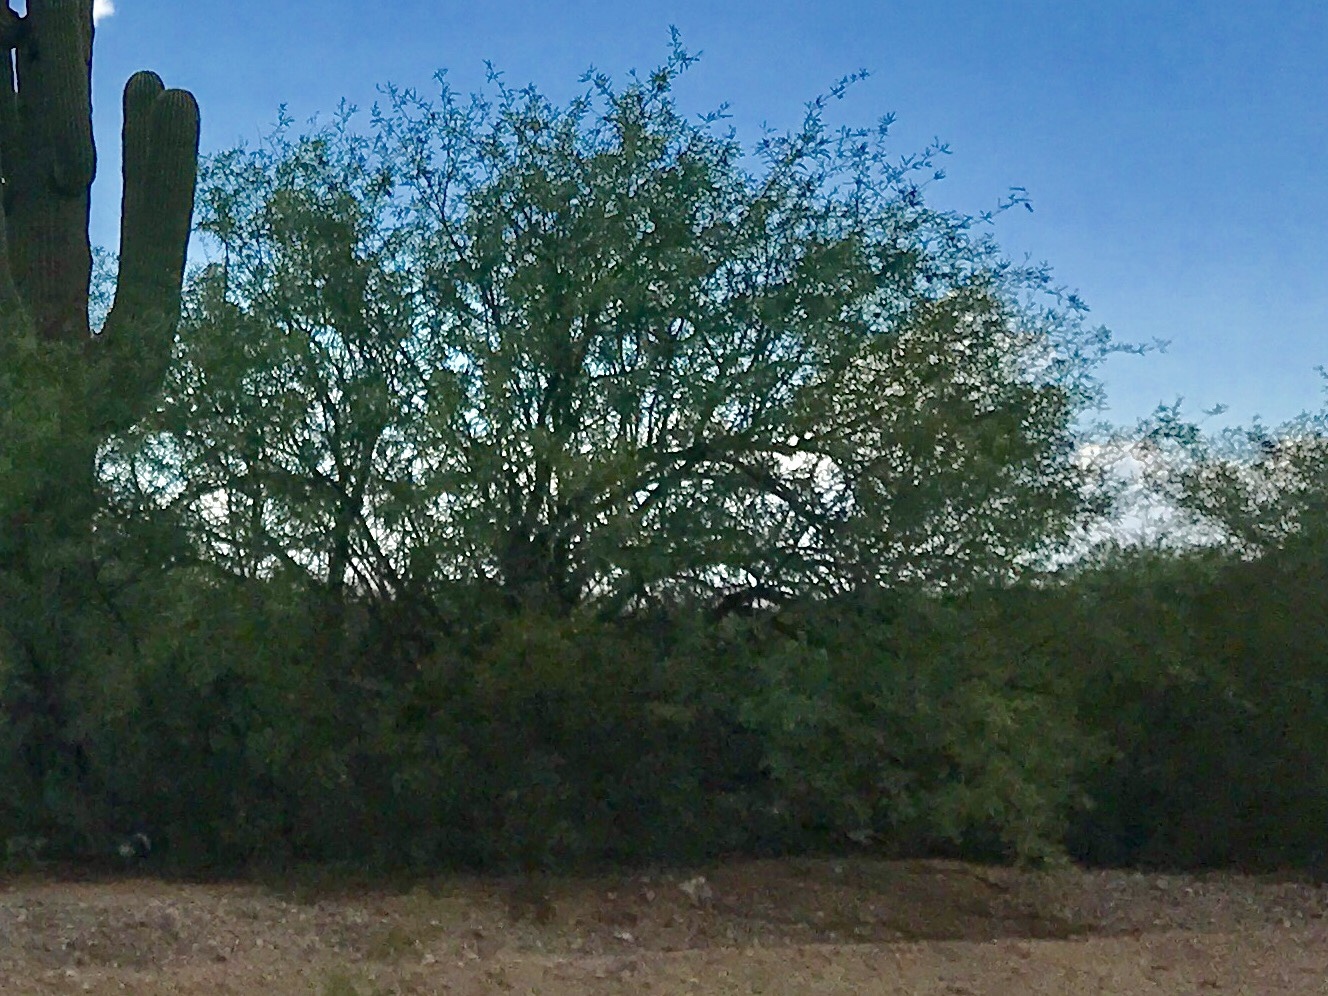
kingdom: Plantae
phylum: Tracheophyta
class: Magnoliopsida
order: Fabales
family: Fabaceae
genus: Prosopis
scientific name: Prosopis velutina
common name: Velvet mesquite
